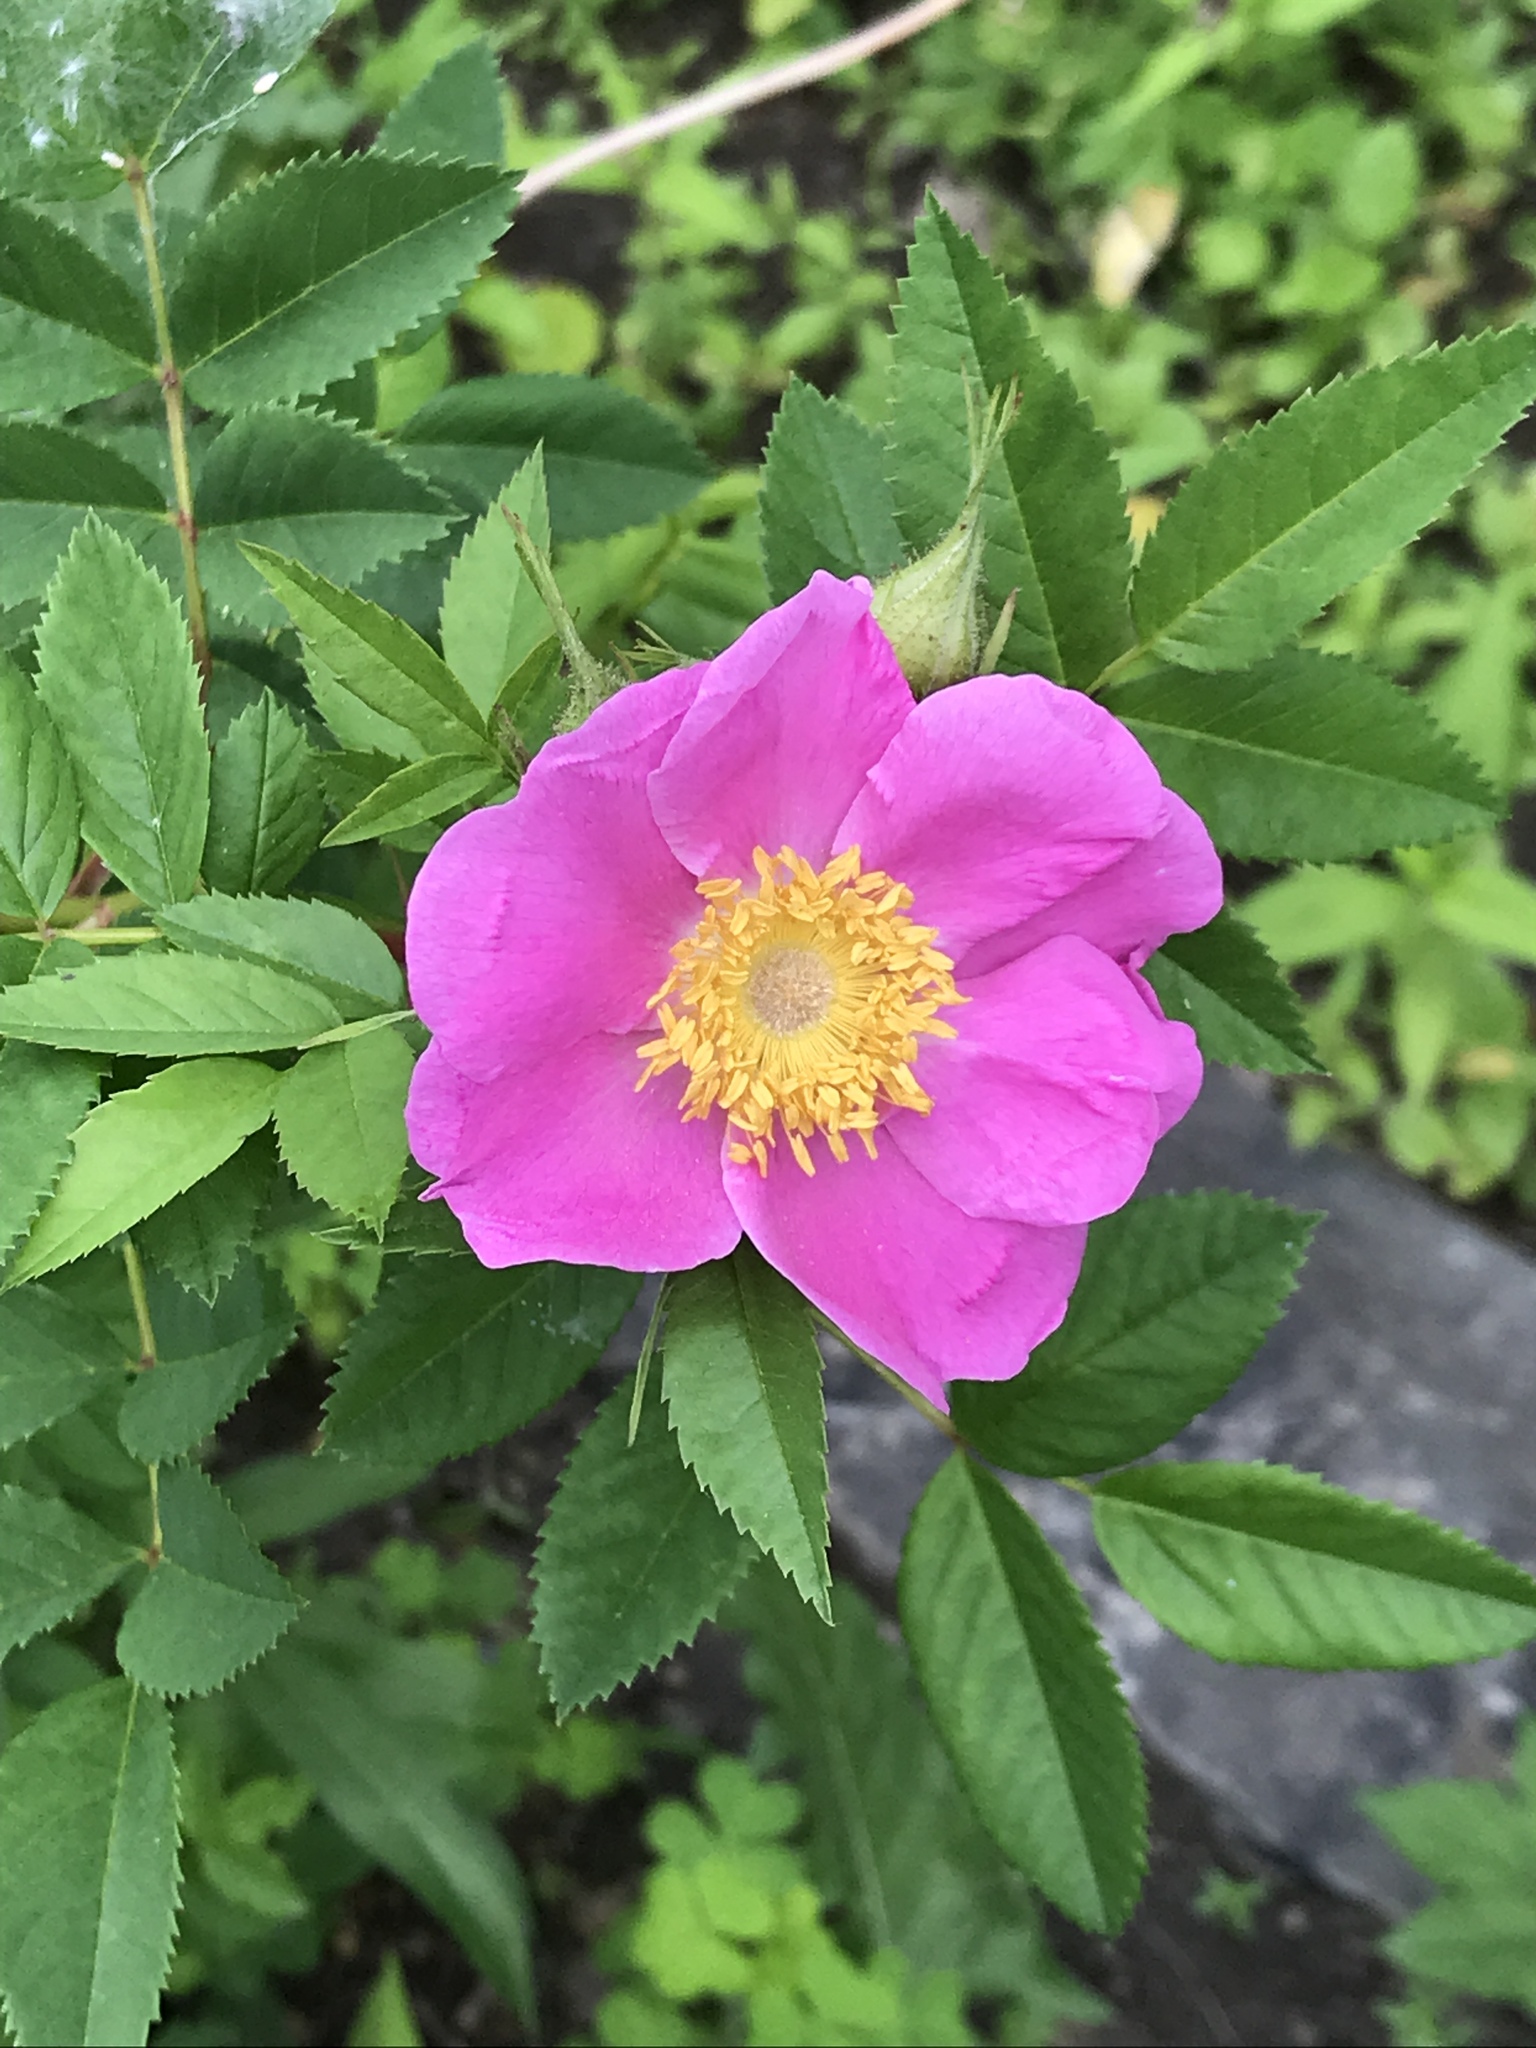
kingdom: Plantae
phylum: Tracheophyta
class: Magnoliopsida
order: Rosales
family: Rosaceae
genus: Rosa
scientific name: Rosa carolina
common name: Pasture rose
